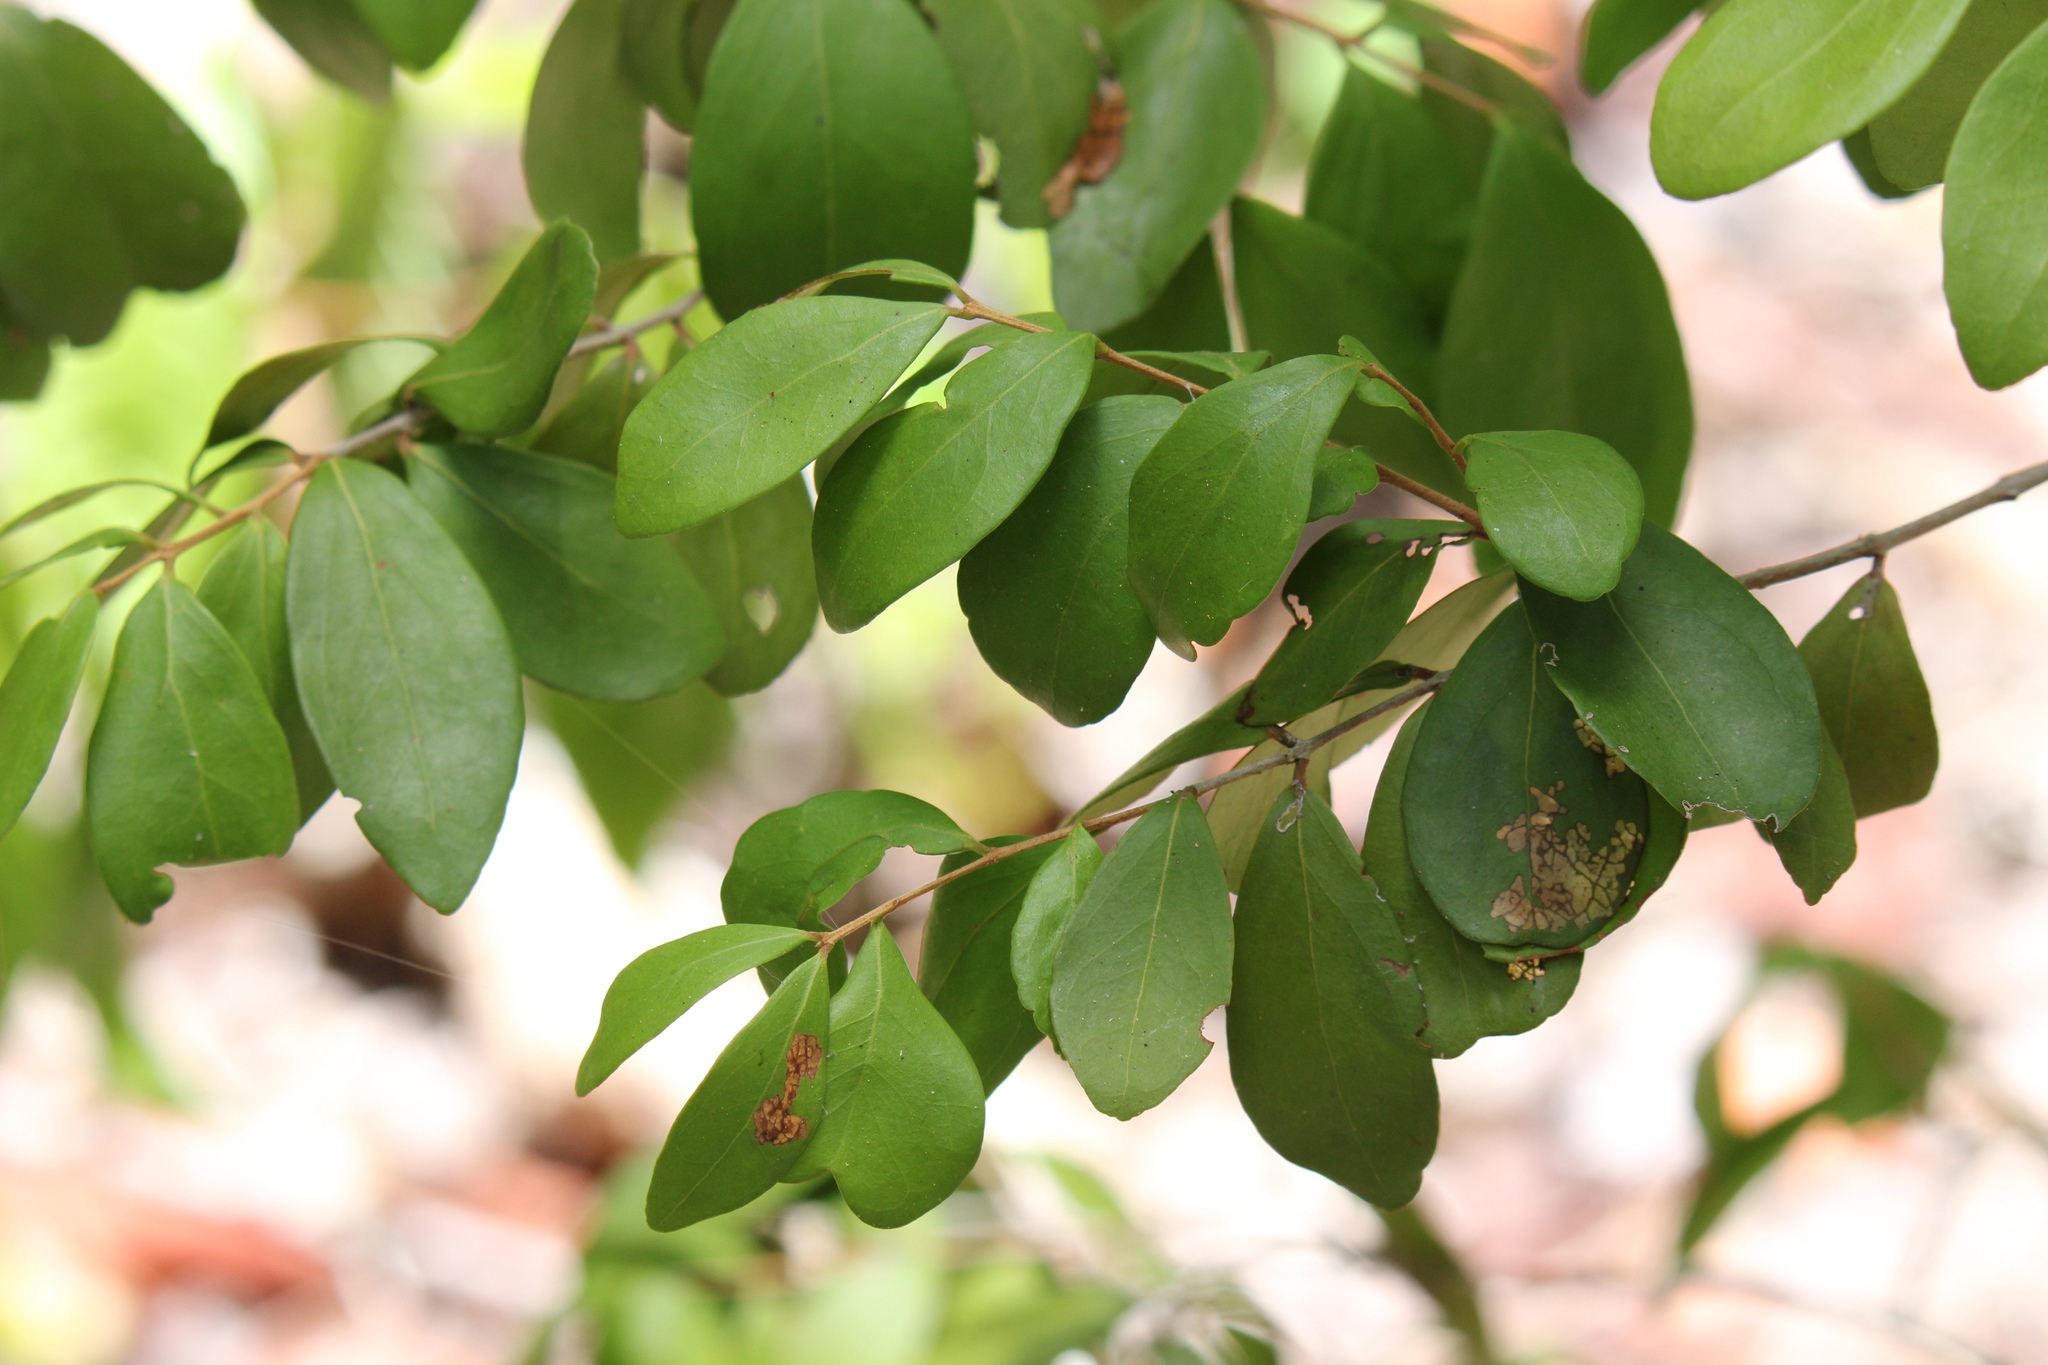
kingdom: Plantae
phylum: Tracheophyta
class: Magnoliopsida
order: Myrtales
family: Myrtaceae
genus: Eugenia
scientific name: Eugenia foetida
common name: White wattling
